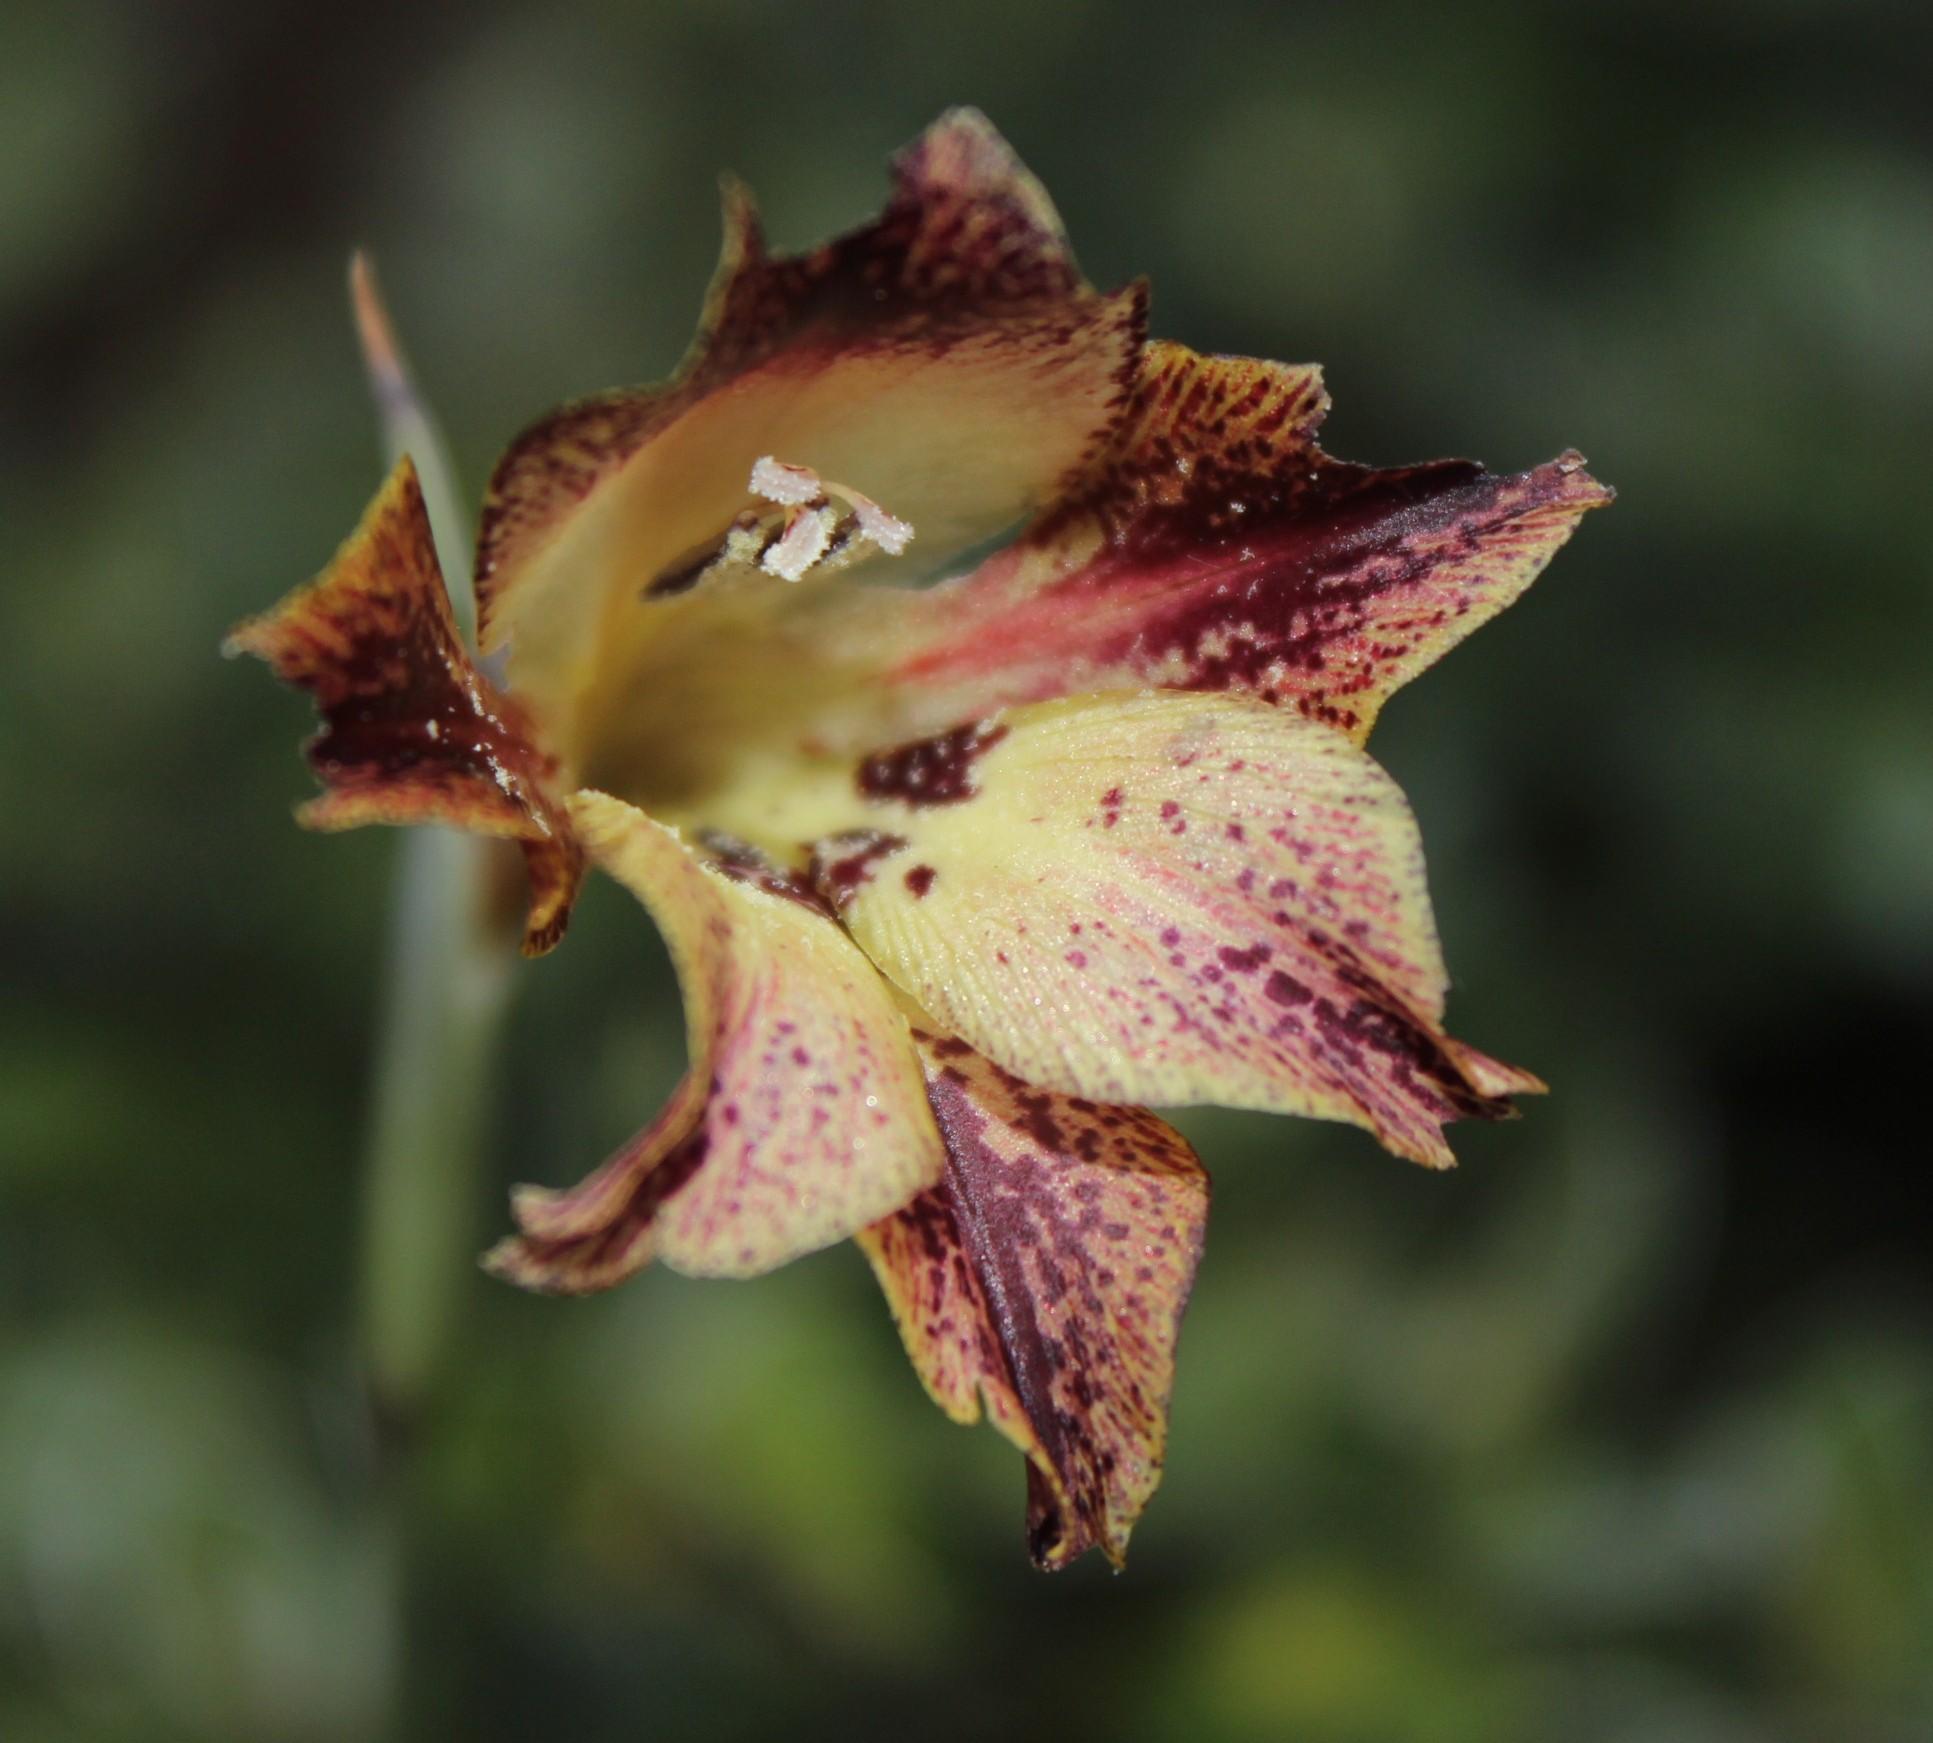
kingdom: Plantae
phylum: Tracheophyta
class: Liliopsida
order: Asparagales
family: Iridaceae
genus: Gladiolus
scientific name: Gladiolus maculatus
